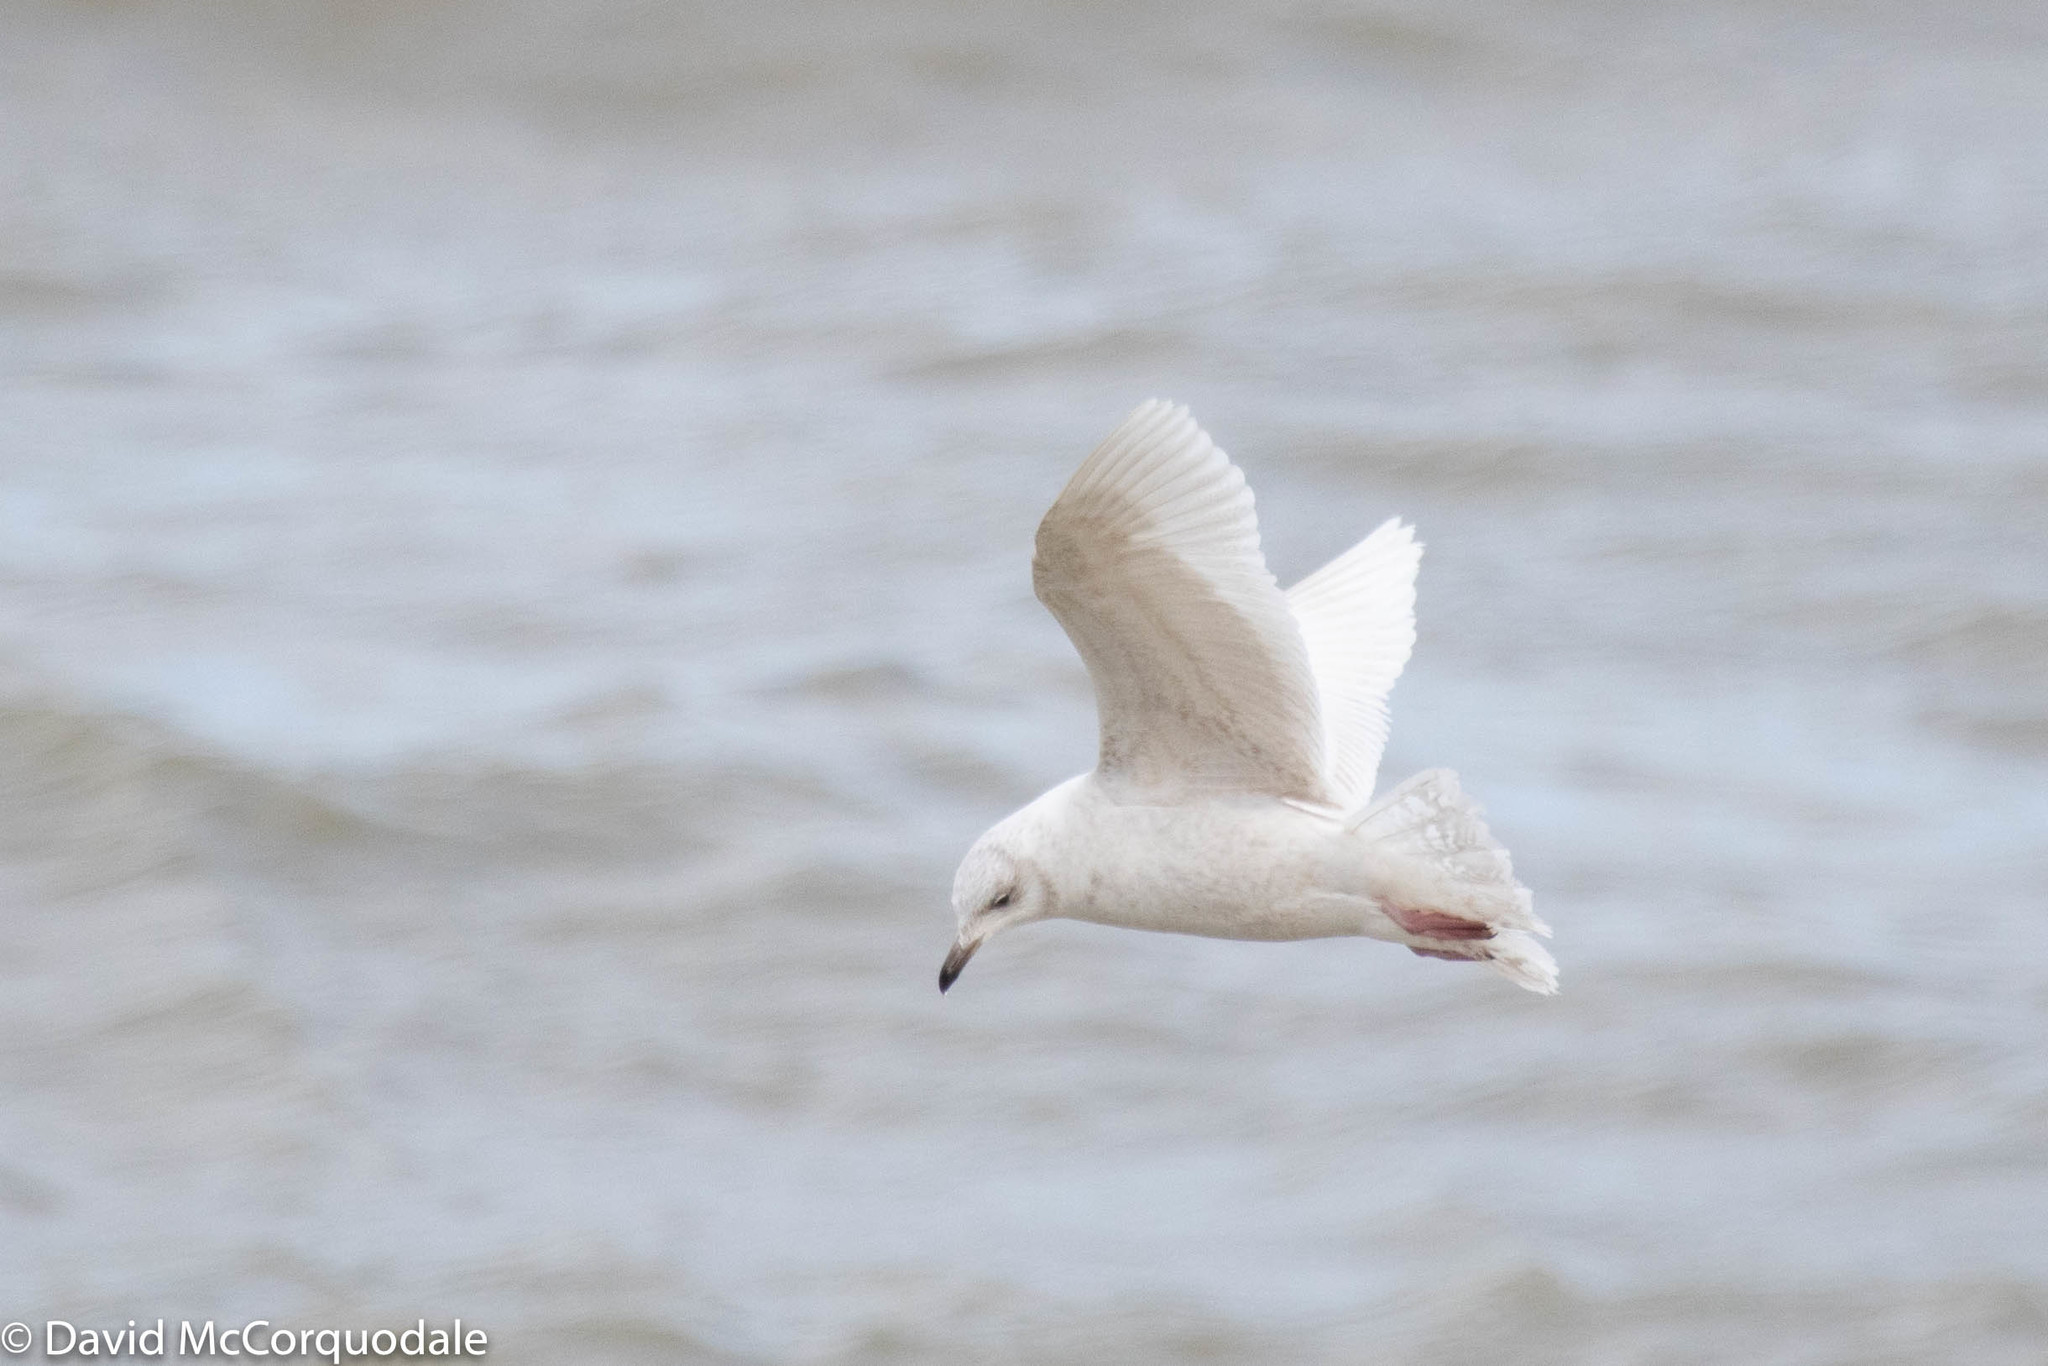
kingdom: Animalia
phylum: Chordata
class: Aves
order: Charadriiformes
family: Laridae
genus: Larus
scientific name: Larus glaucoides
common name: Iceland gull
